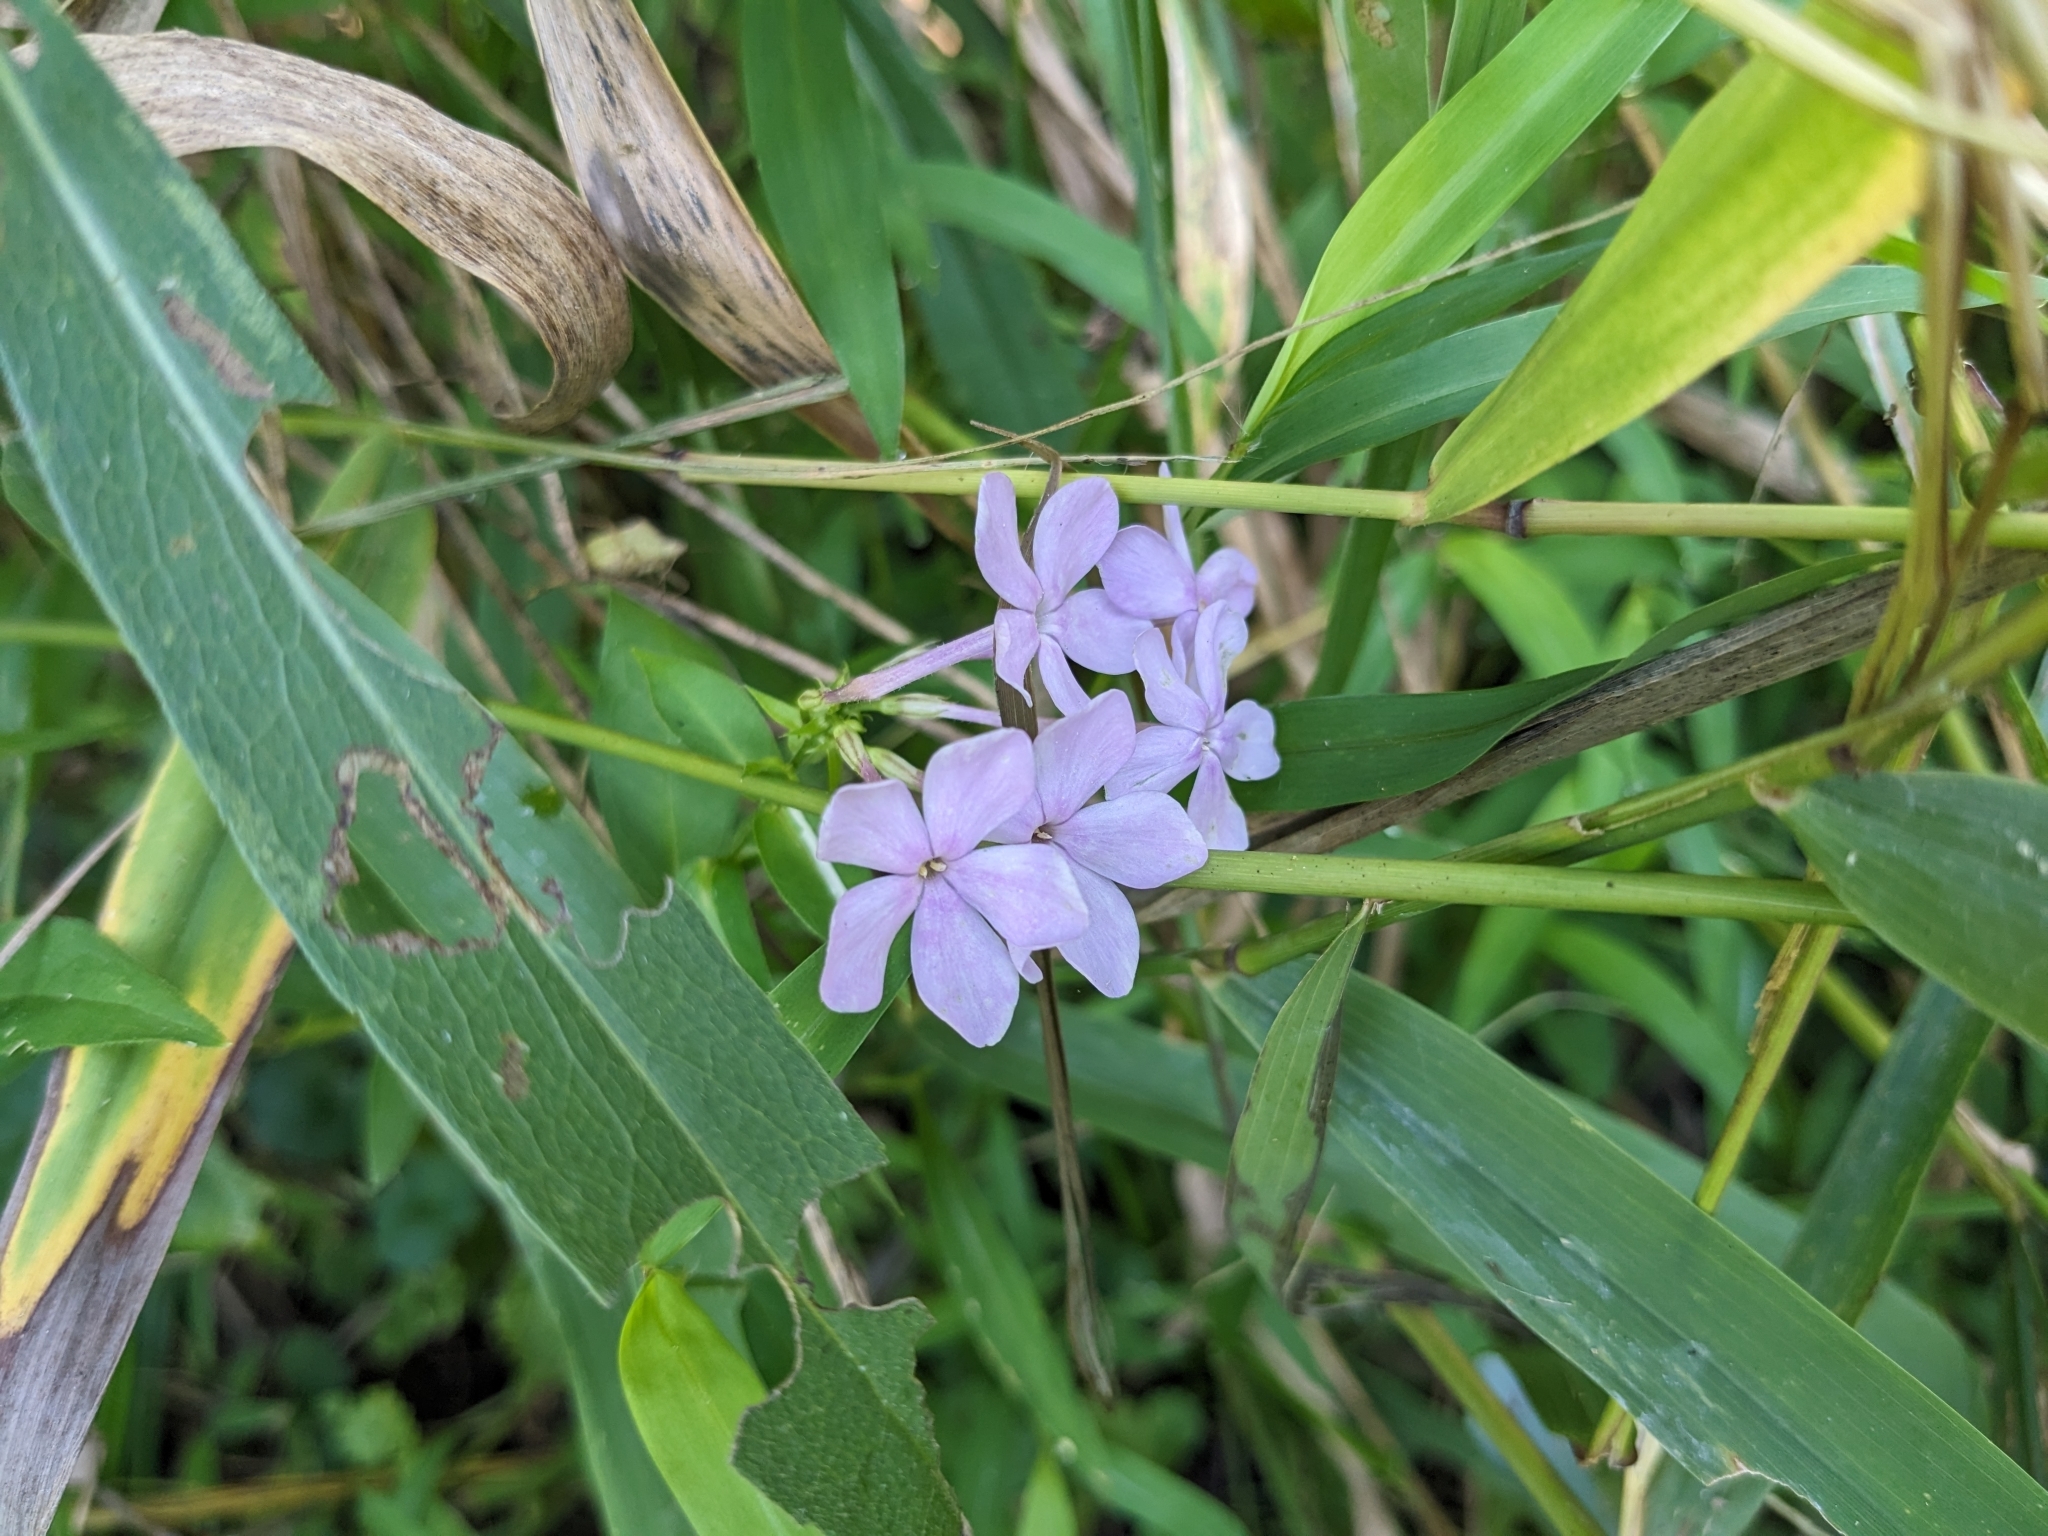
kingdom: Plantae
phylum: Tracheophyta
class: Magnoliopsida
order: Ericales
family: Polemoniaceae
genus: Phlox
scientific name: Phlox paniculata
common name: Fall phlox
